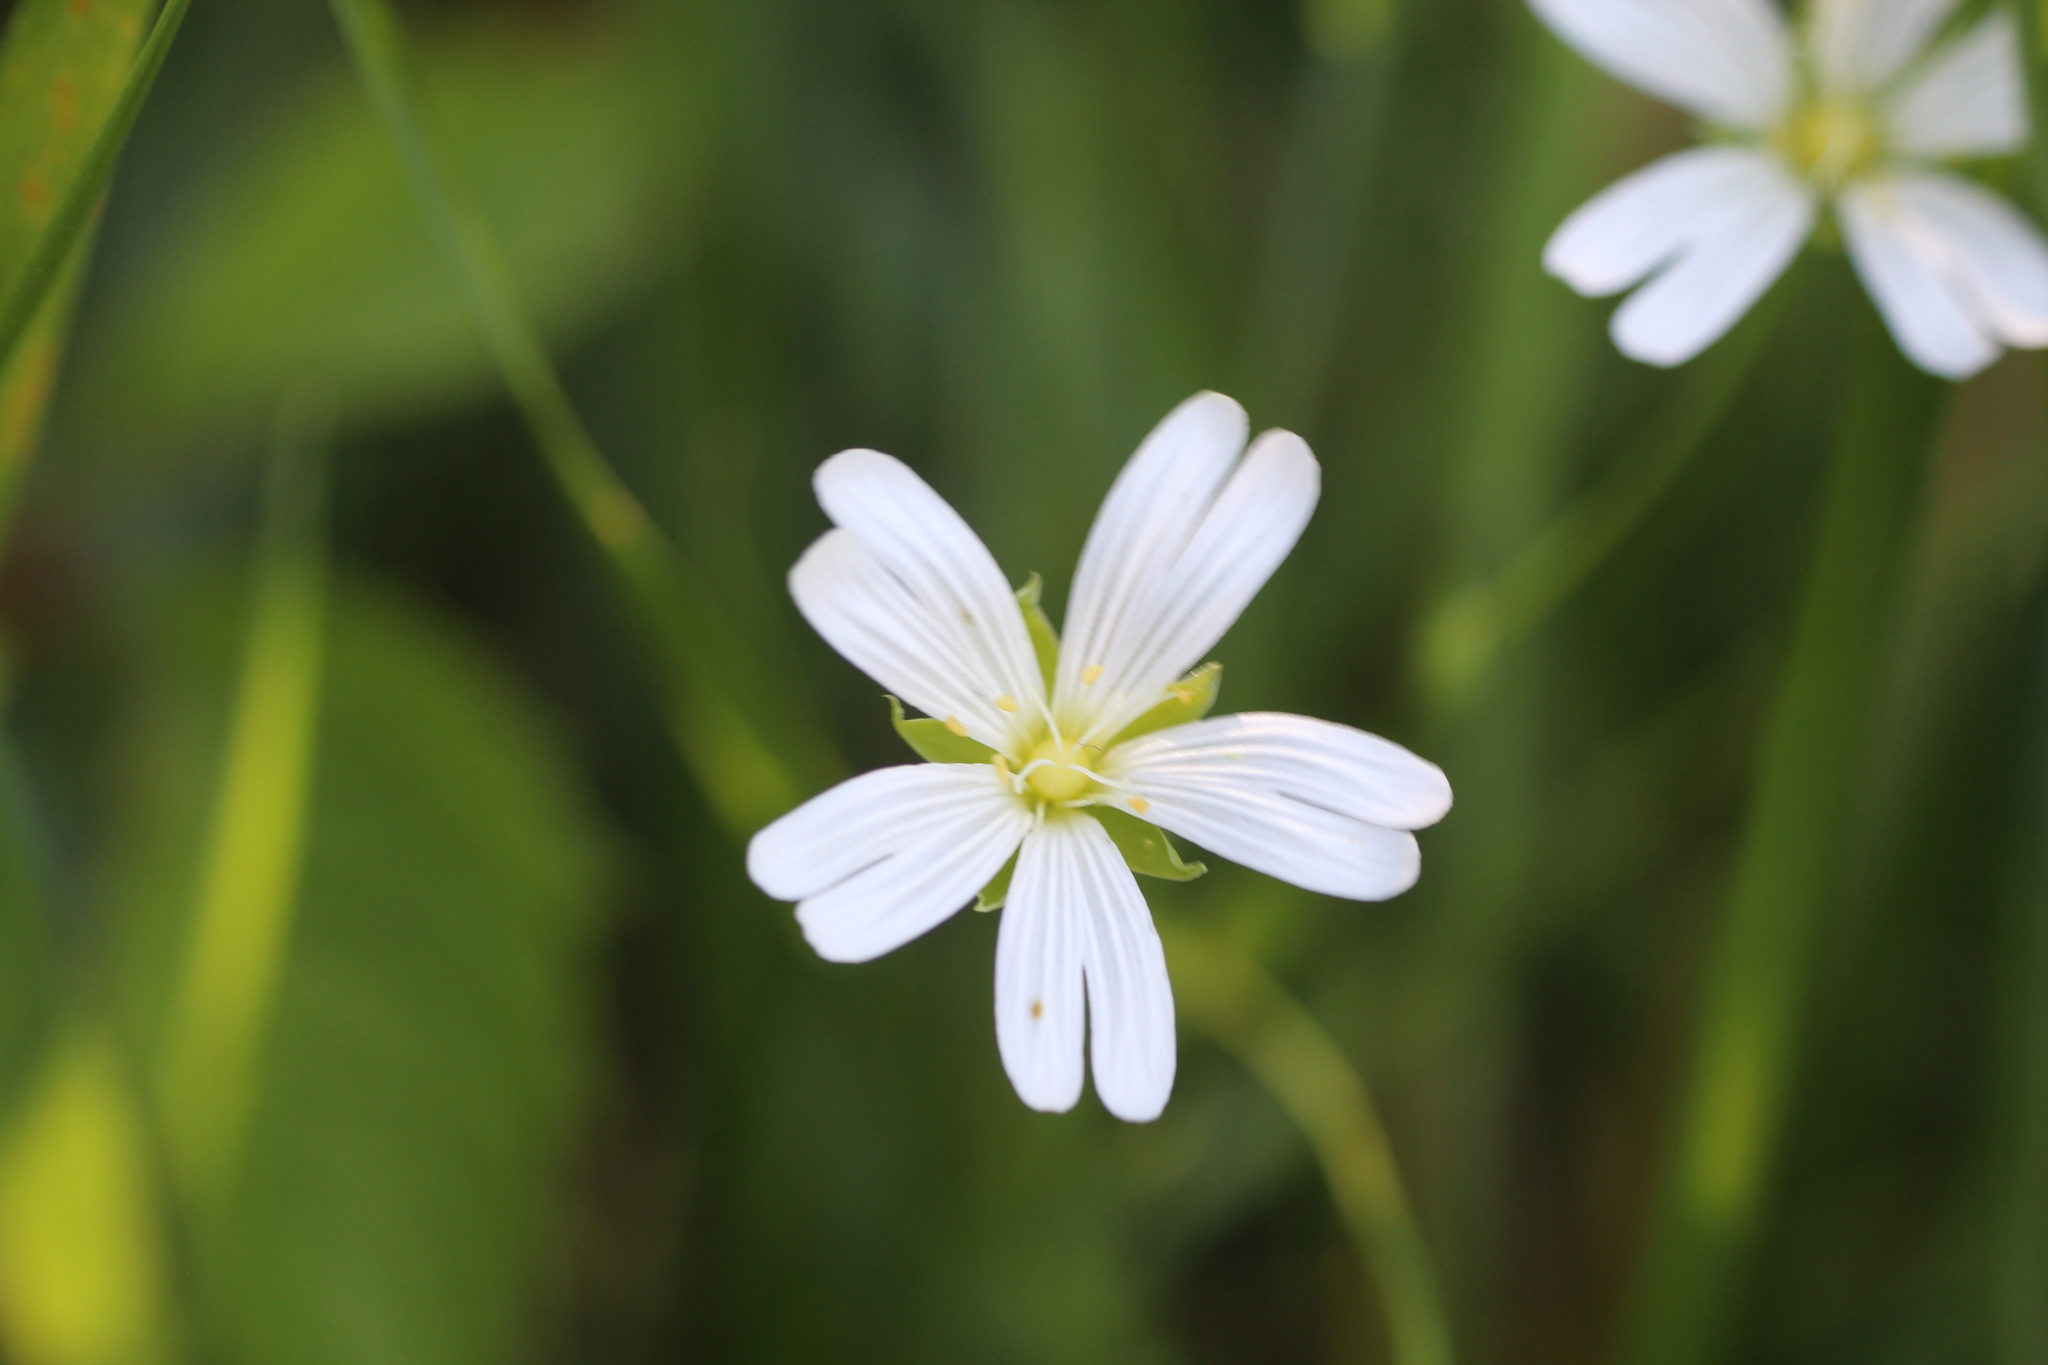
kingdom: Plantae
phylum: Tracheophyta
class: Magnoliopsida
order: Caryophyllales
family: Caryophyllaceae
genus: Rabelera
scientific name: Rabelera holostea
